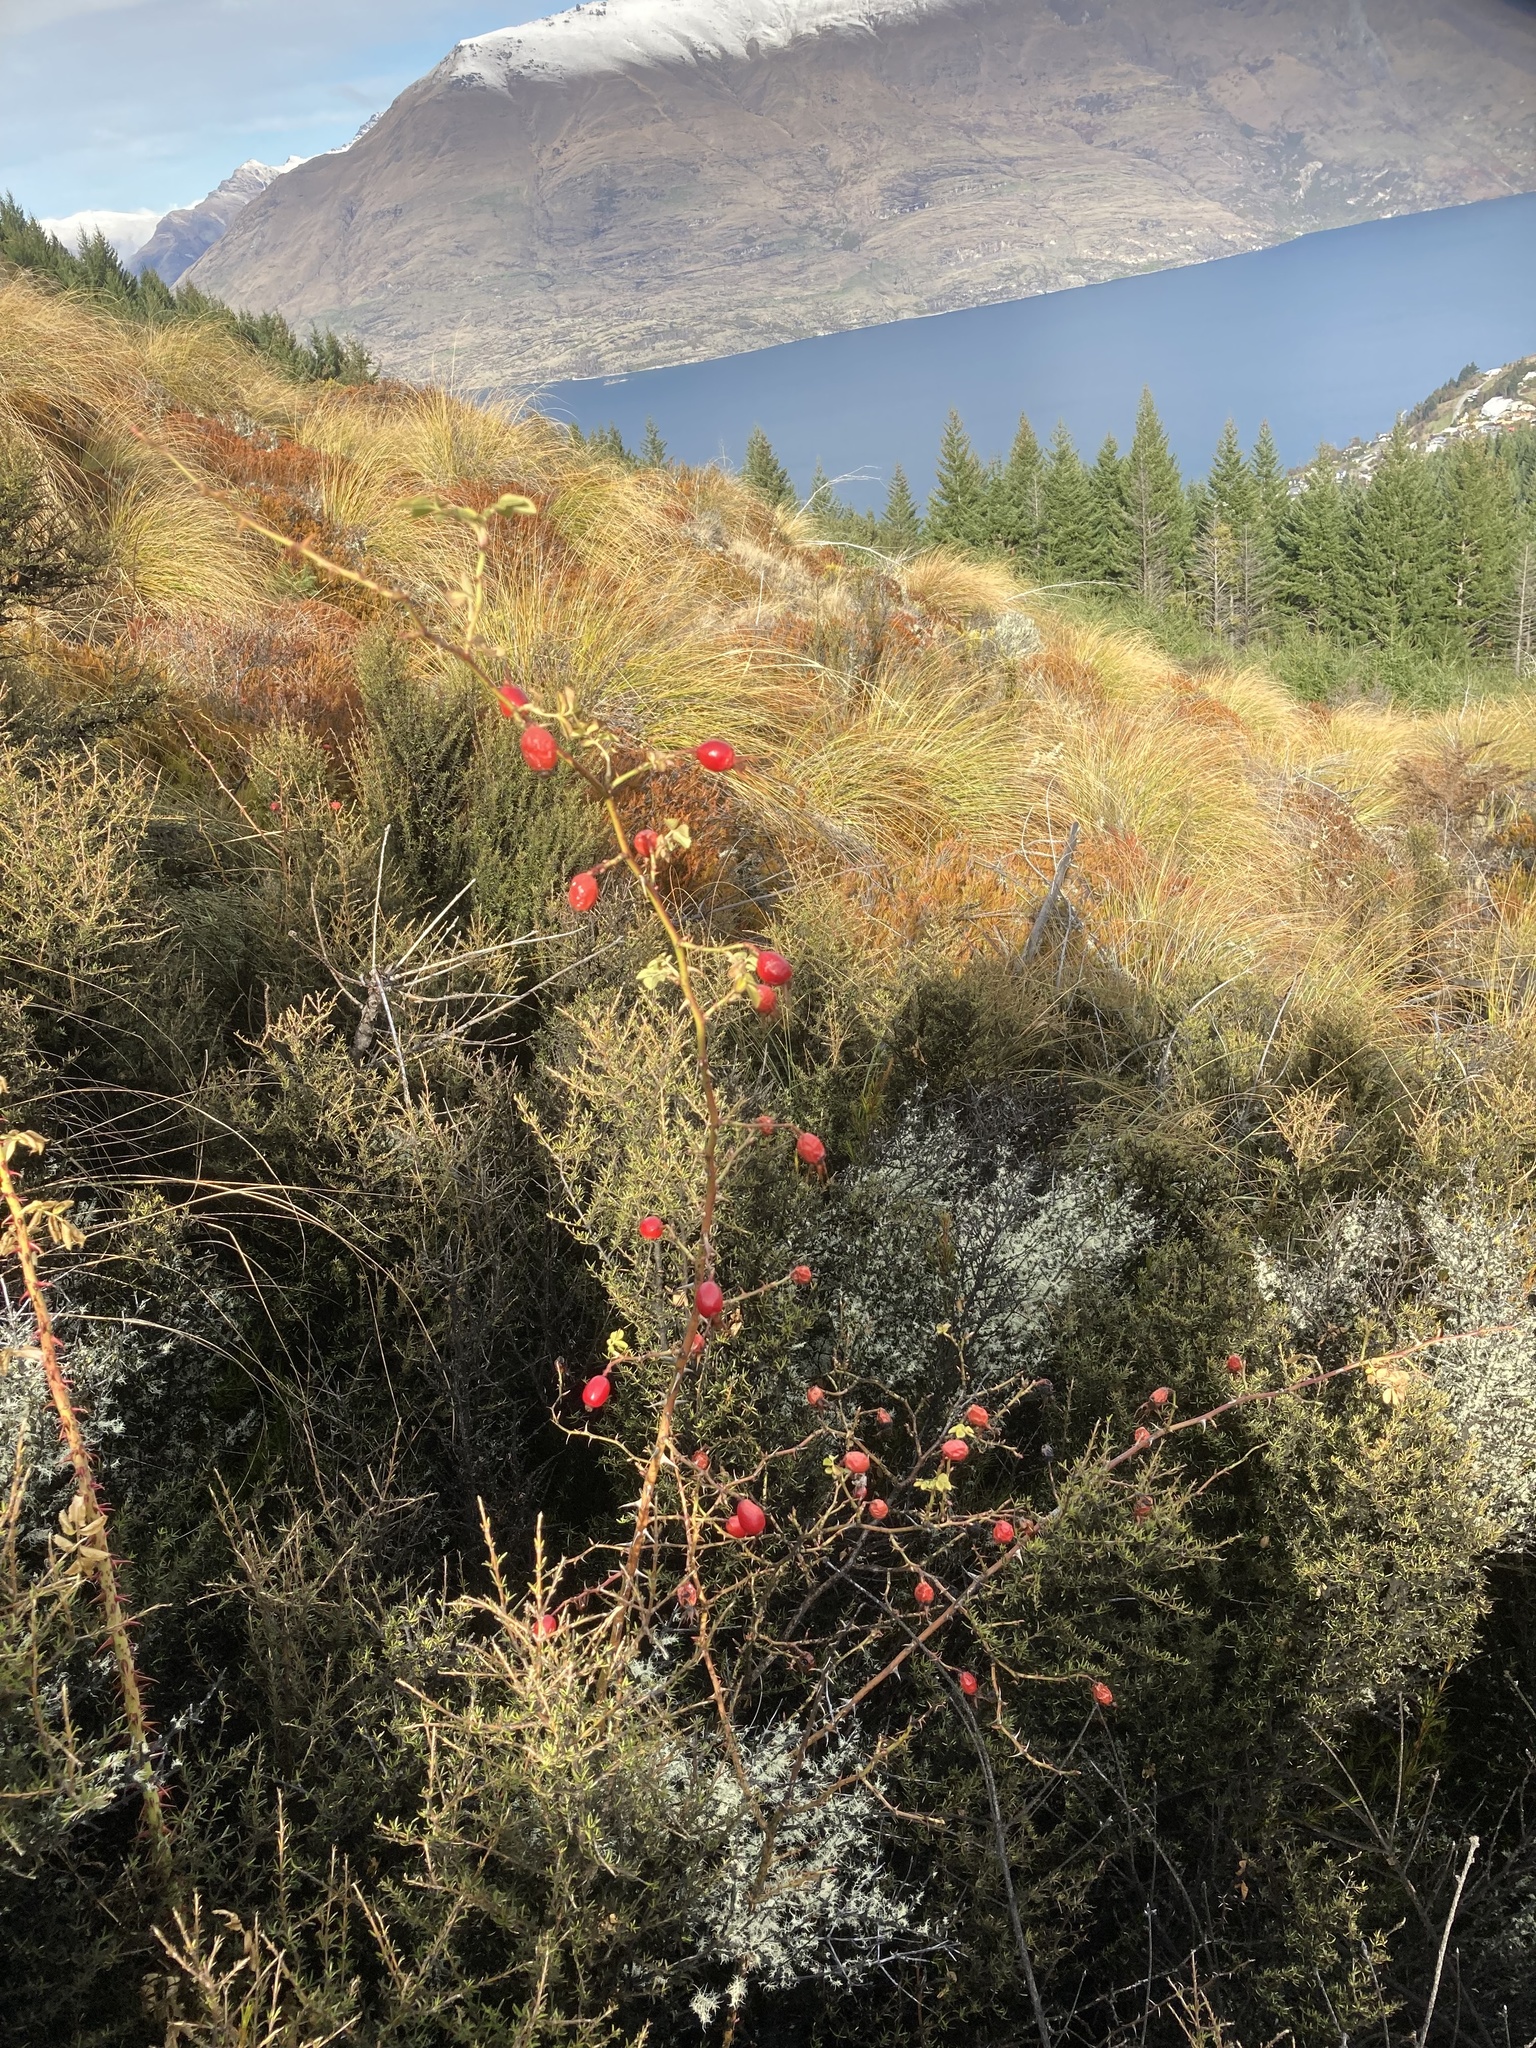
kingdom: Plantae
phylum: Tracheophyta
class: Magnoliopsida
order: Rosales
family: Rosaceae
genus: Rosa
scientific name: Rosa rubiginosa
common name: Sweet-briar
